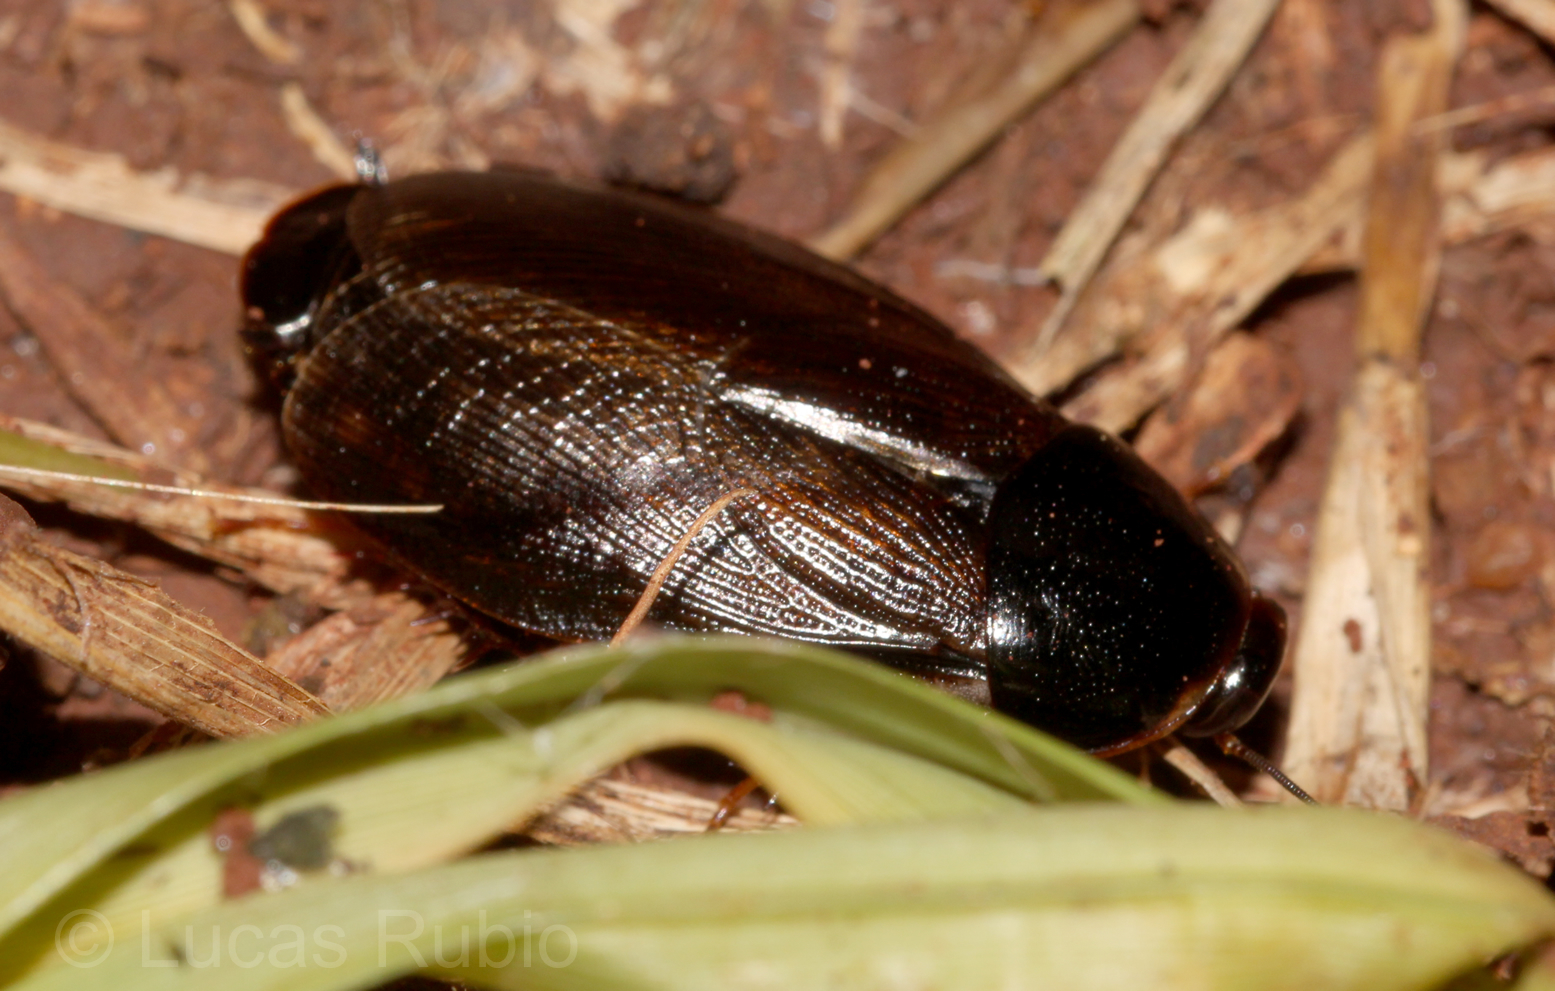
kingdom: Animalia
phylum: Arthropoda
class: Insecta
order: Blattodea
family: Blaberidae
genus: Pycnoscelus
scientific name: Pycnoscelus surinamensis
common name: Surinam cockroach
